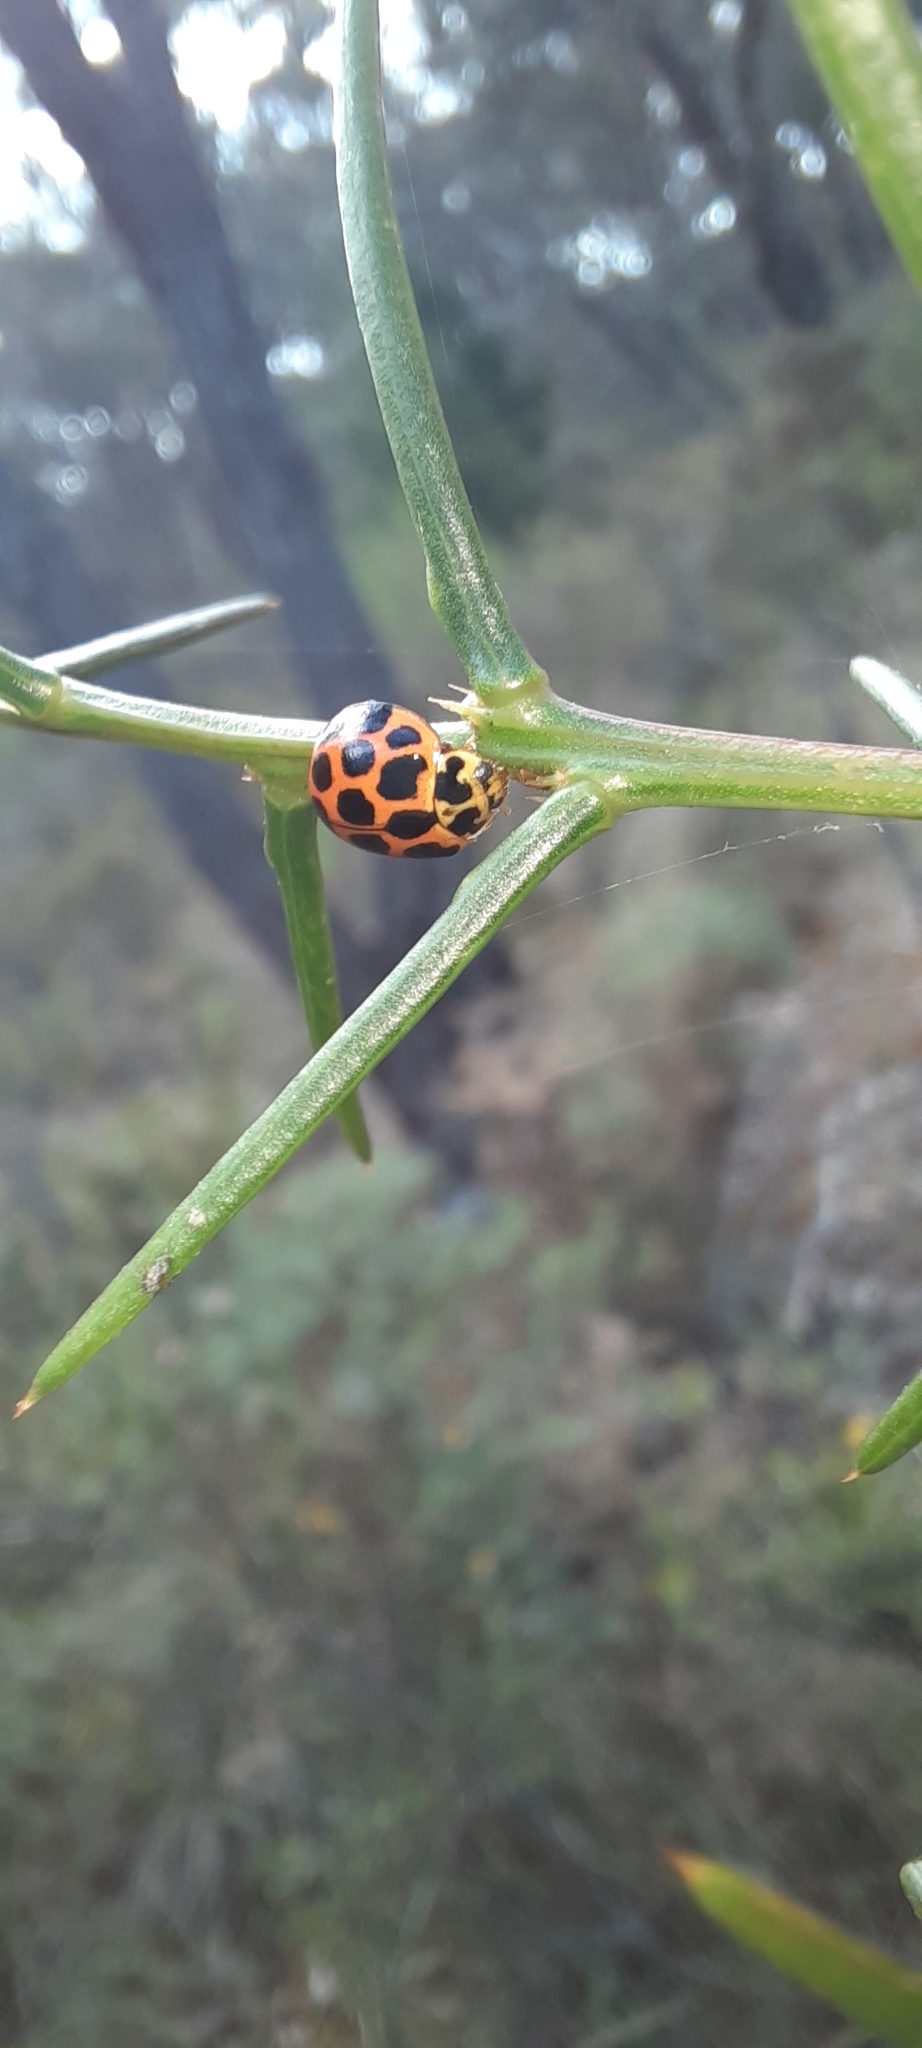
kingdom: Animalia
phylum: Arthropoda
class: Insecta
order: Coleoptera
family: Coccinellidae
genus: Harmonia
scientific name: Harmonia conformis
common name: Common spotted ladybird beetle
